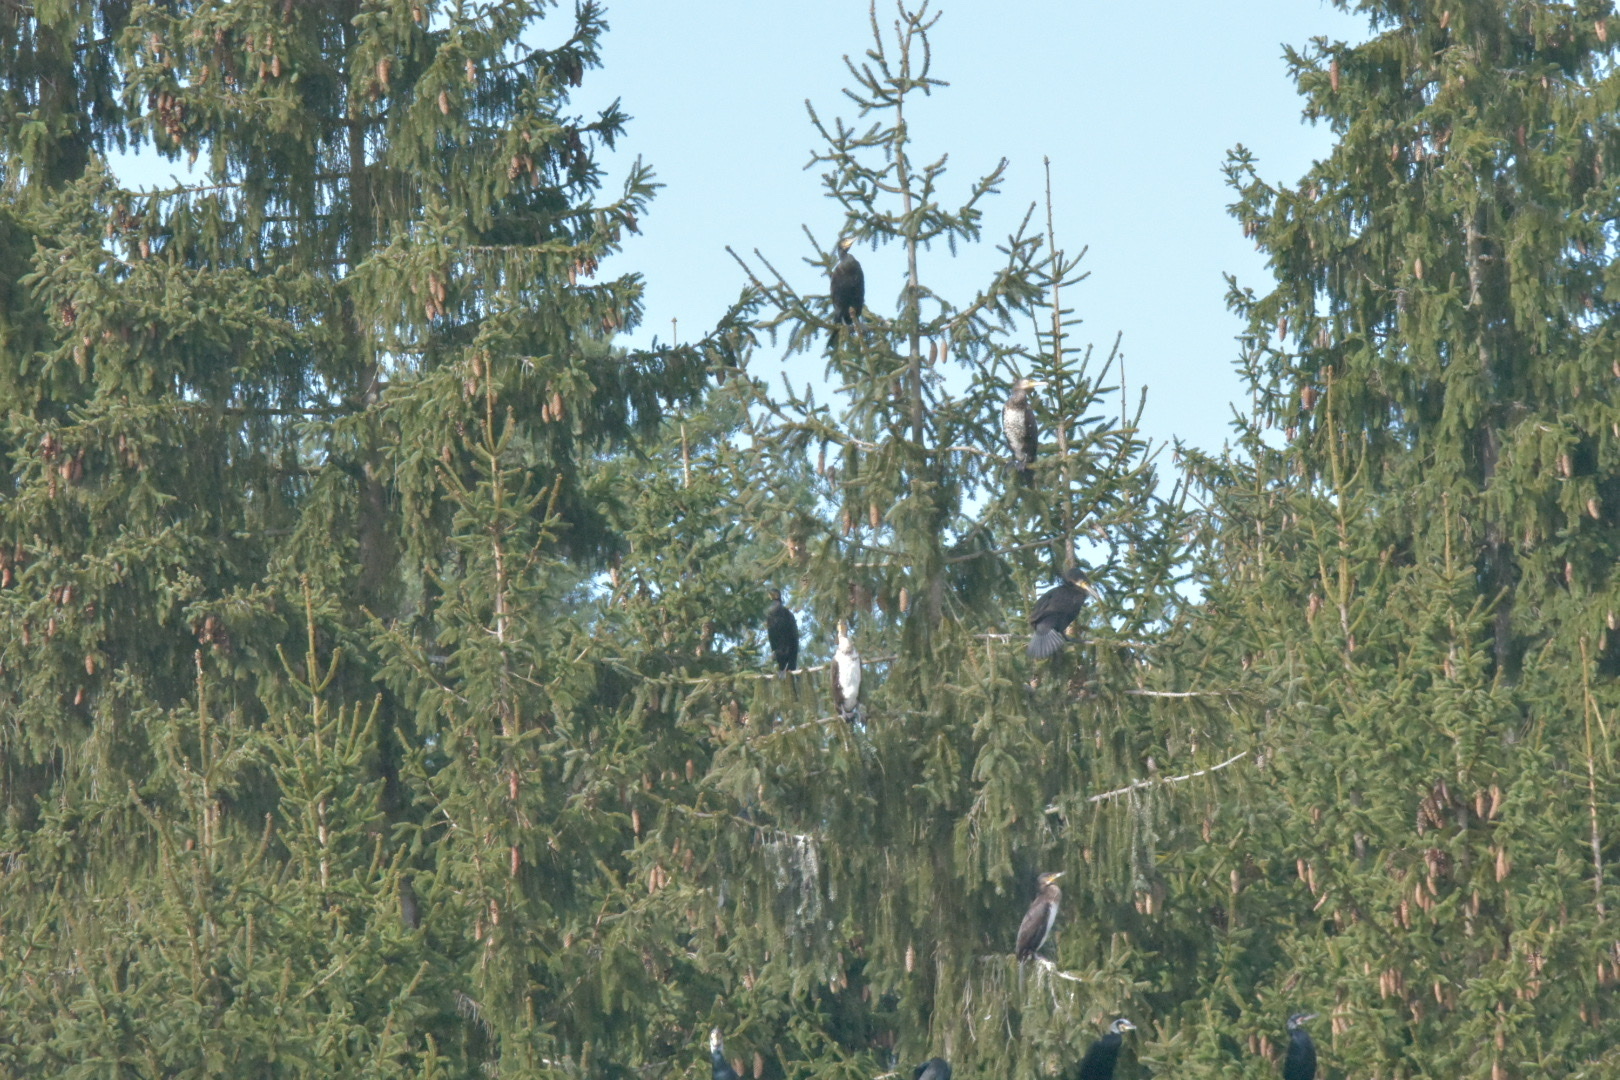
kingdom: Animalia
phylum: Chordata
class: Aves
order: Suliformes
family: Phalacrocoracidae
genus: Phalacrocorax
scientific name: Phalacrocorax carbo
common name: Great cormorant
